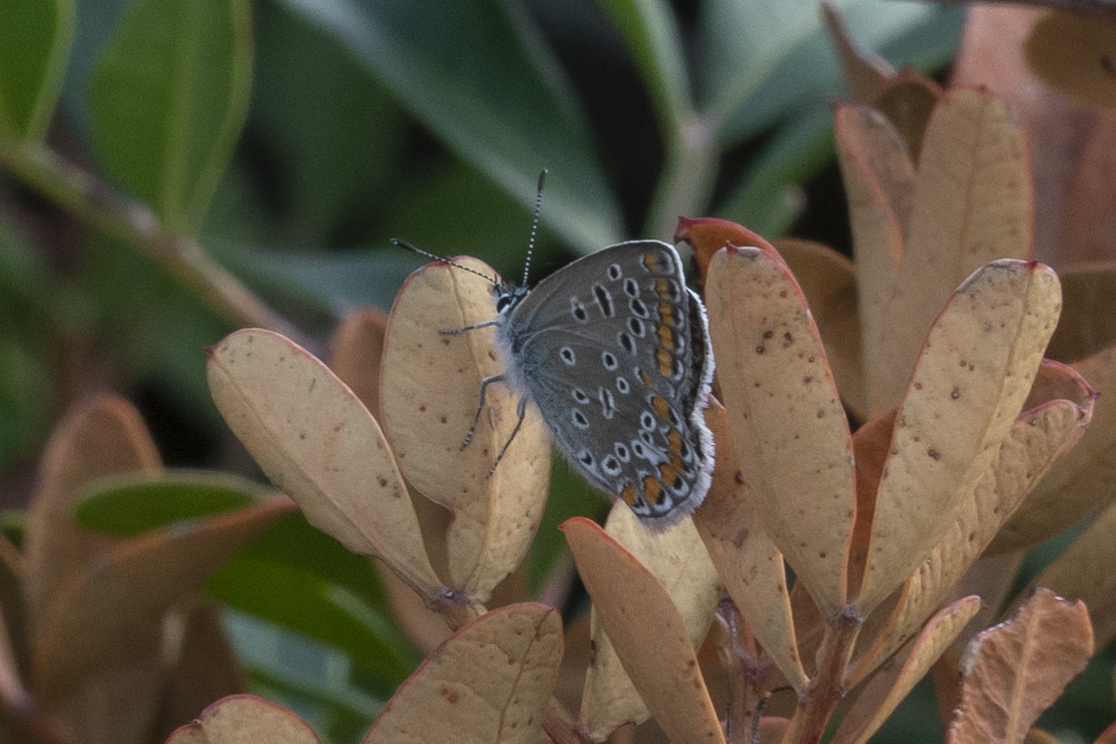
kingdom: Animalia
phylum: Arthropoda
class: Insecta
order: Lepidoptera
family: Lycaenidae
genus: Polyommatus
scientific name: Polyommatus icarus
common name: Common blue
